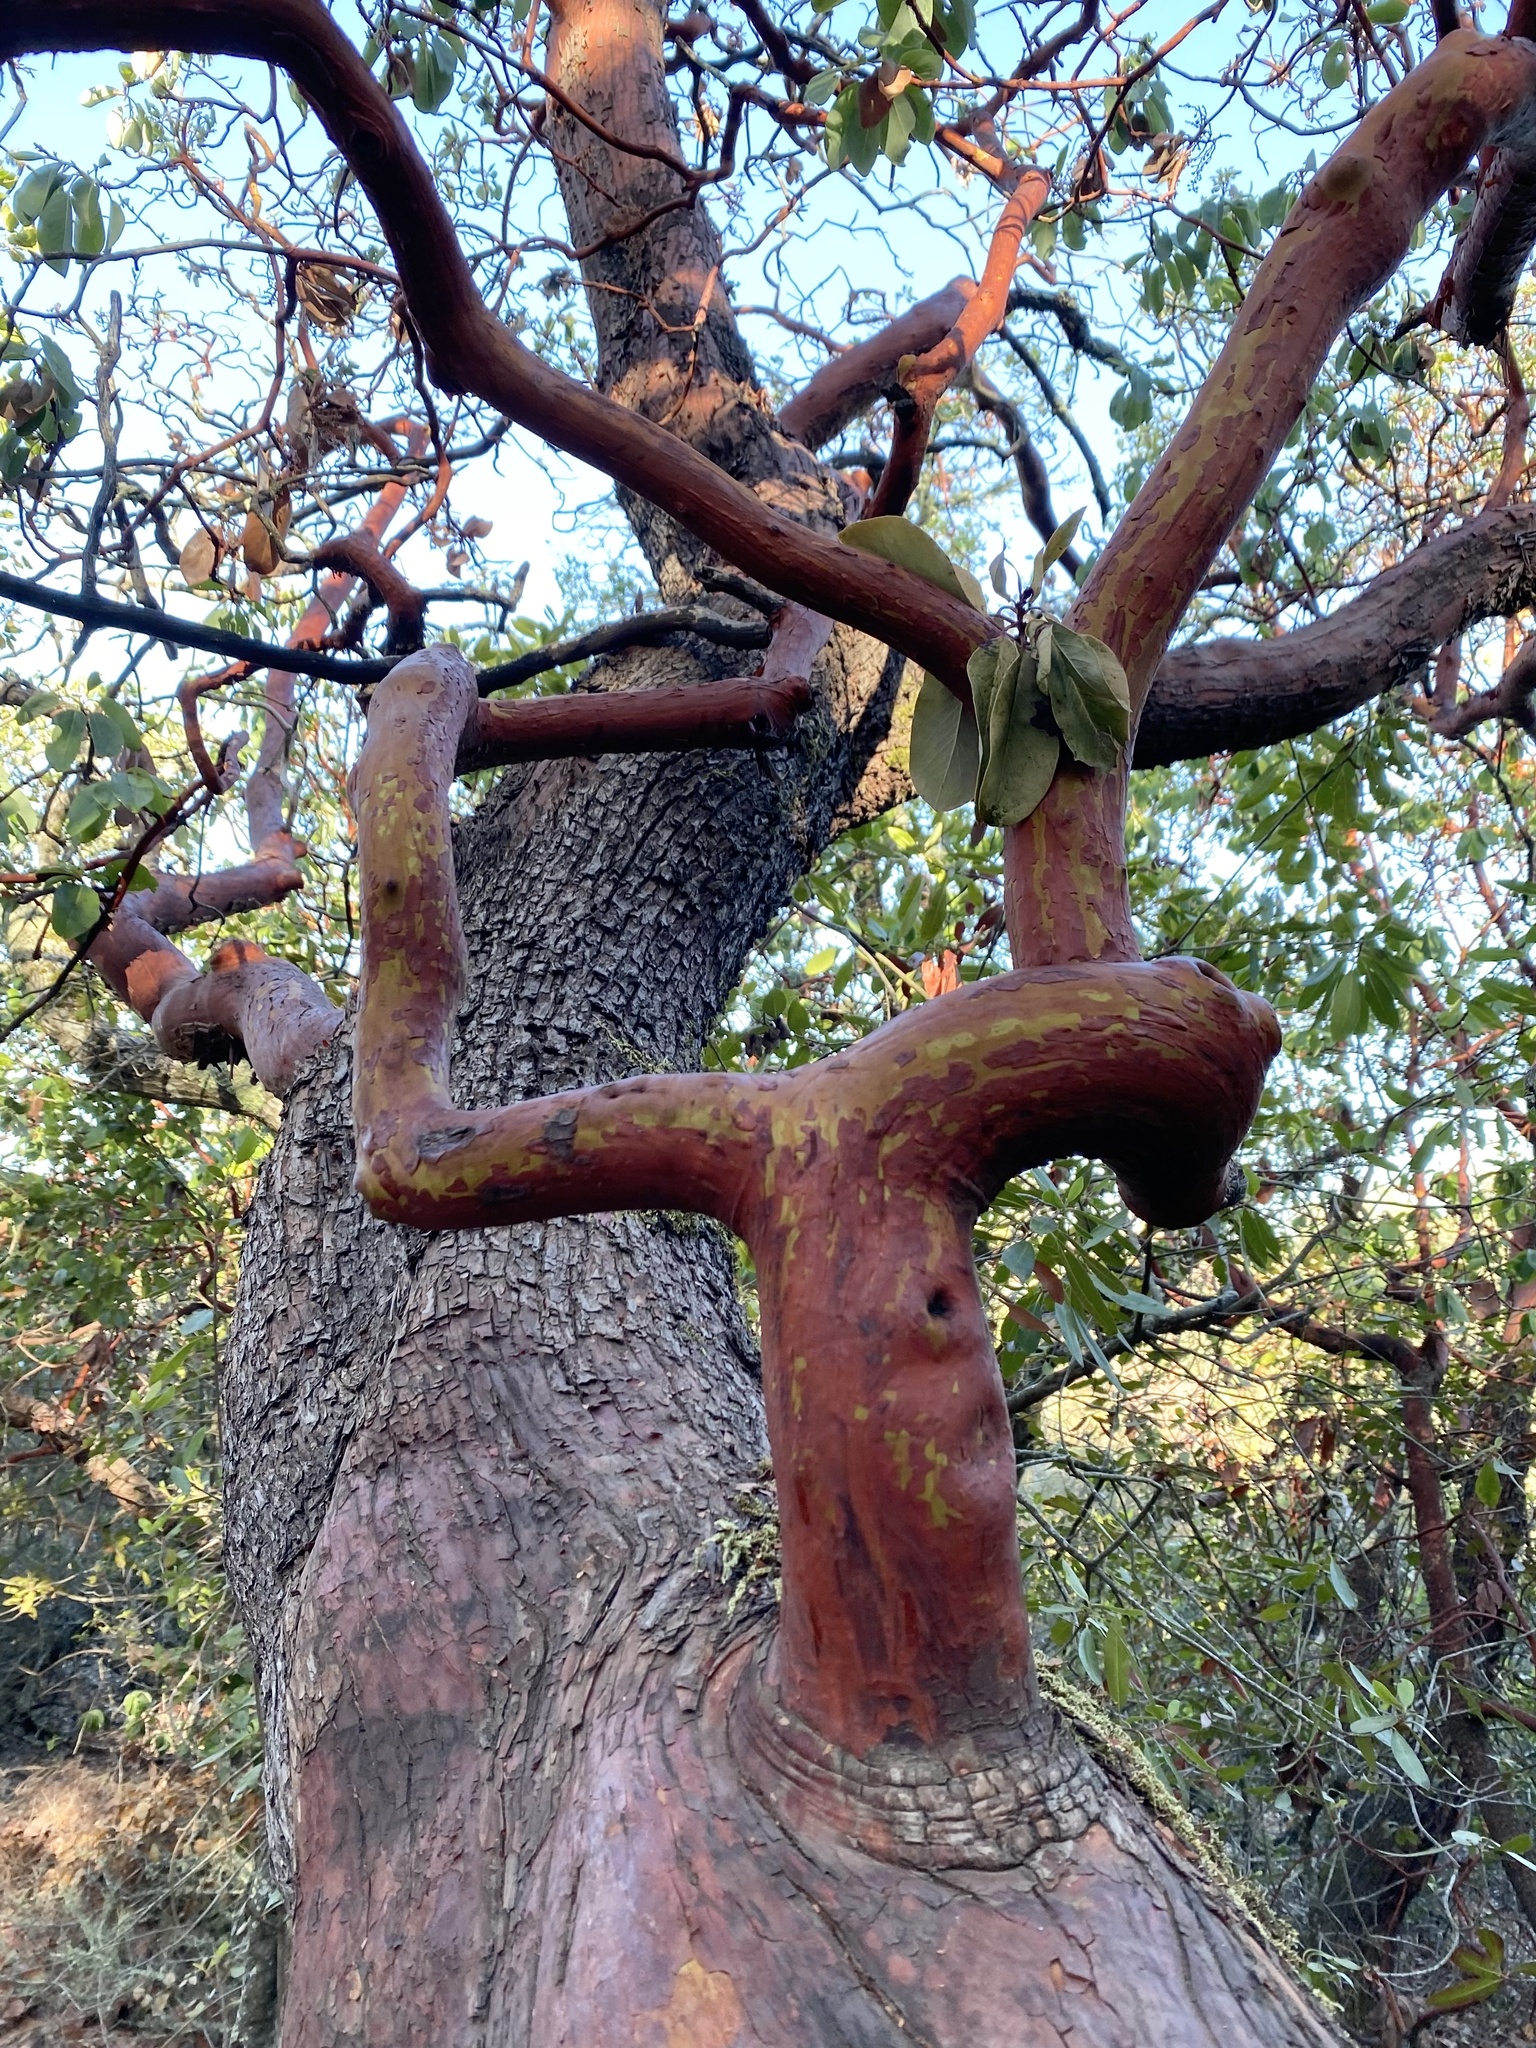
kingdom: Plantae
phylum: Tracheophyta
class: Magnoliopsida
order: Ericales
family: Ericaceae
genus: Arbutus
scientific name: Arbutus menziesii
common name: Pacific madrone
